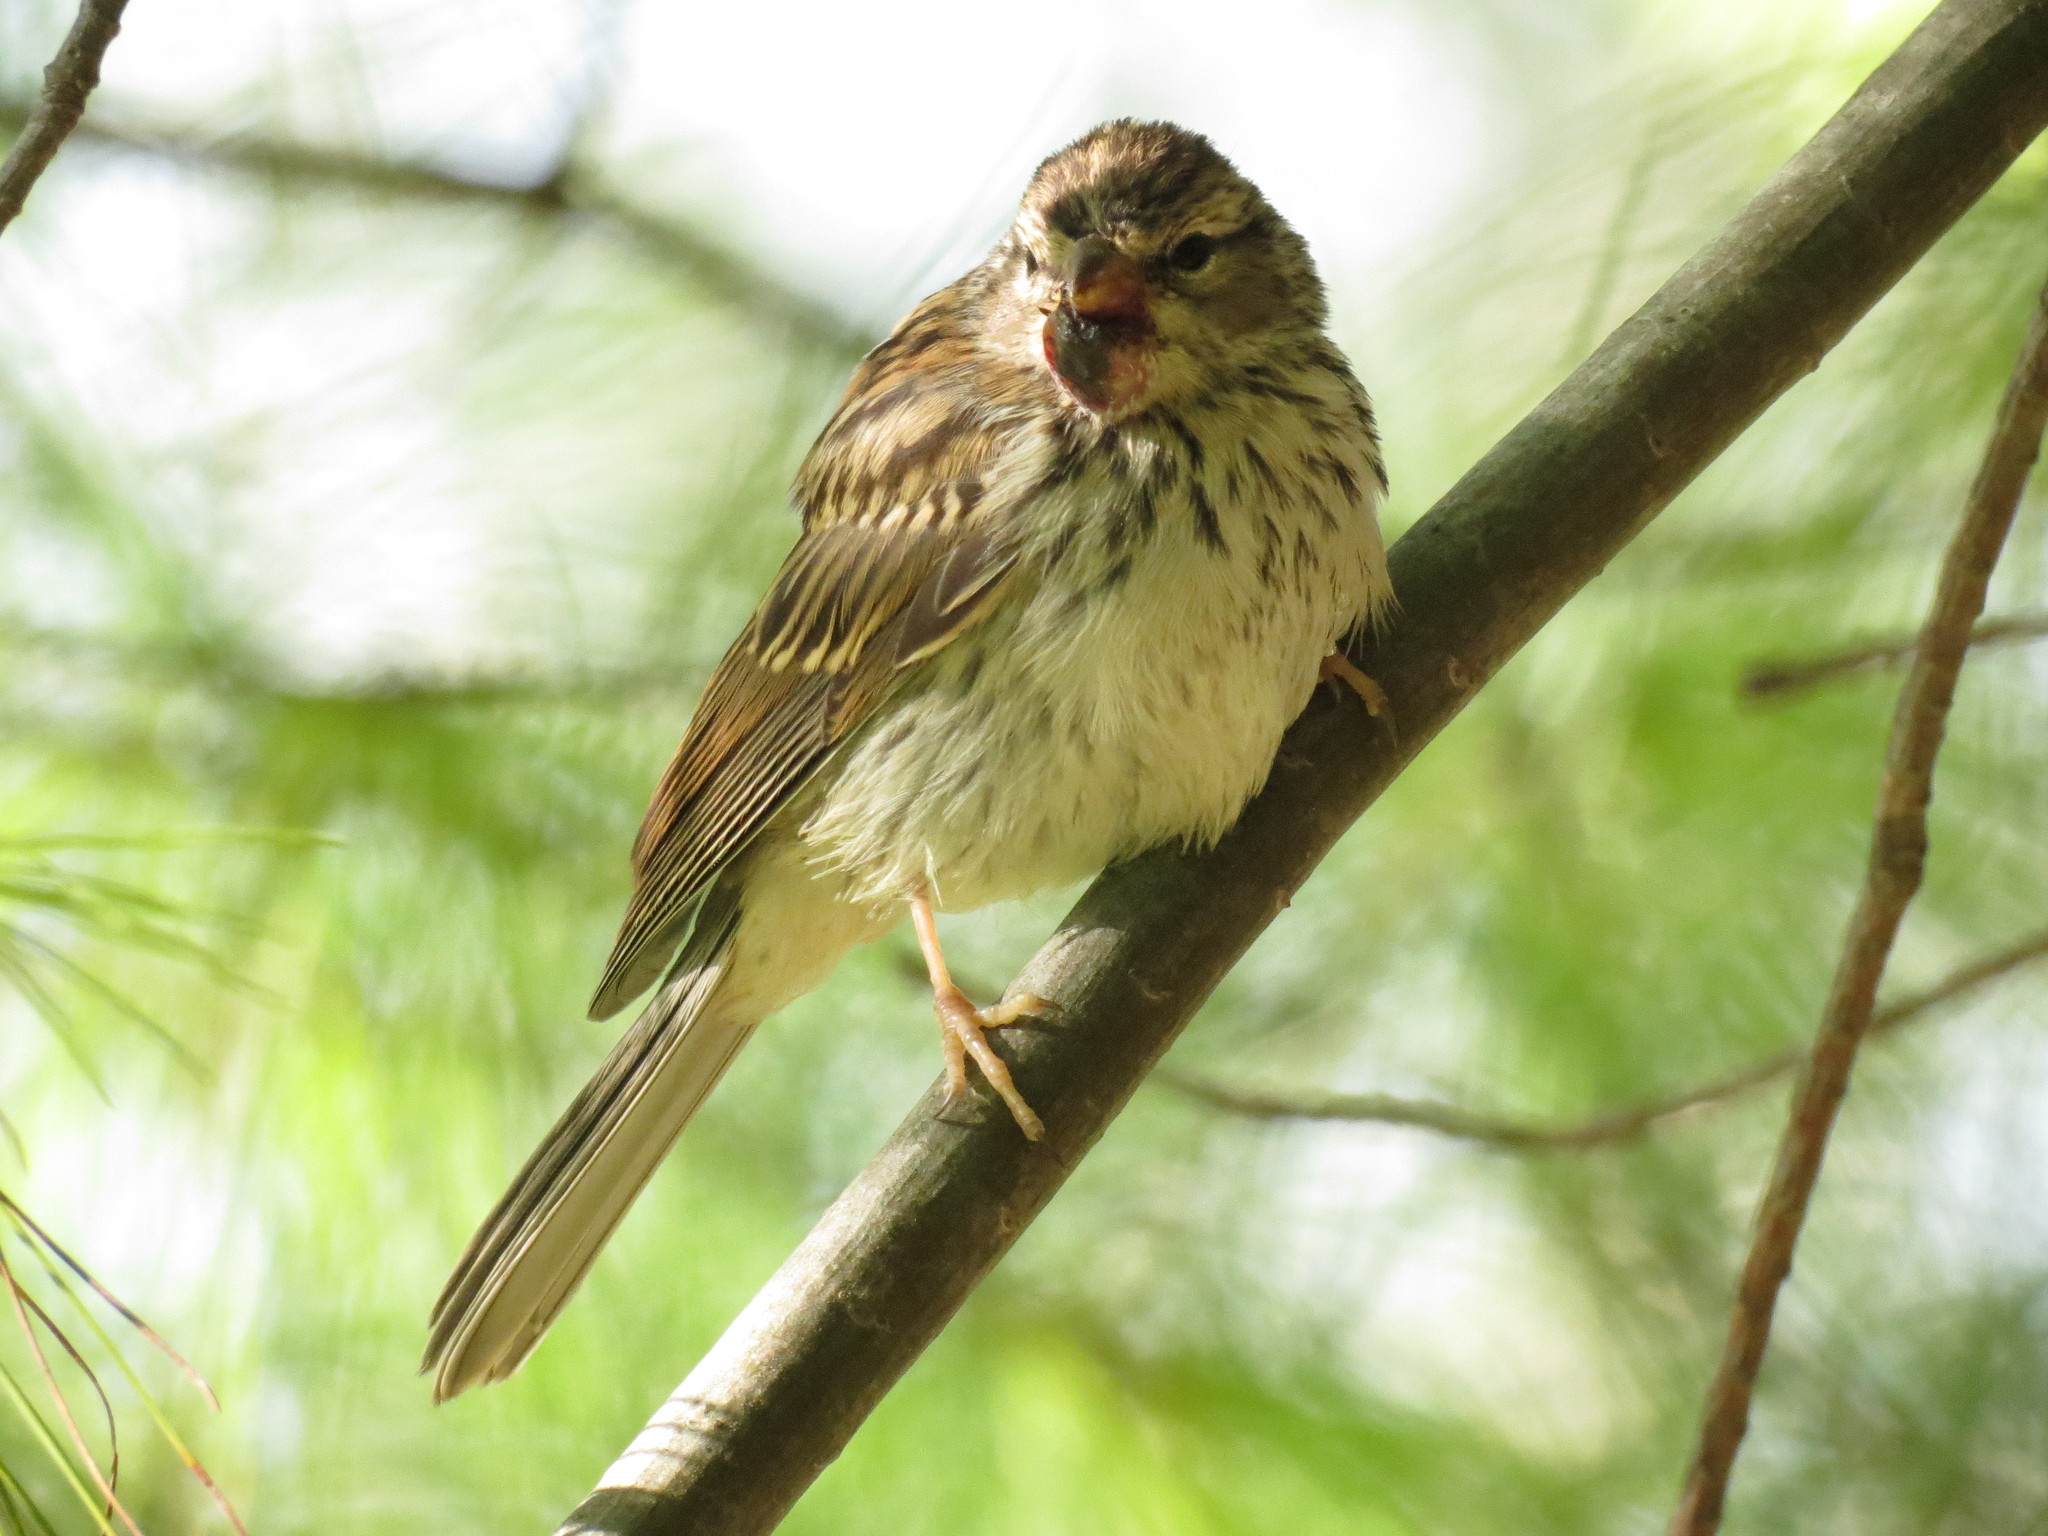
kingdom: Animalia
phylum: Chordata
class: Aves
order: Passeriformes
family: Passerellidae
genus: Spizella
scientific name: Spizella passerina
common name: Chipping sparrow
